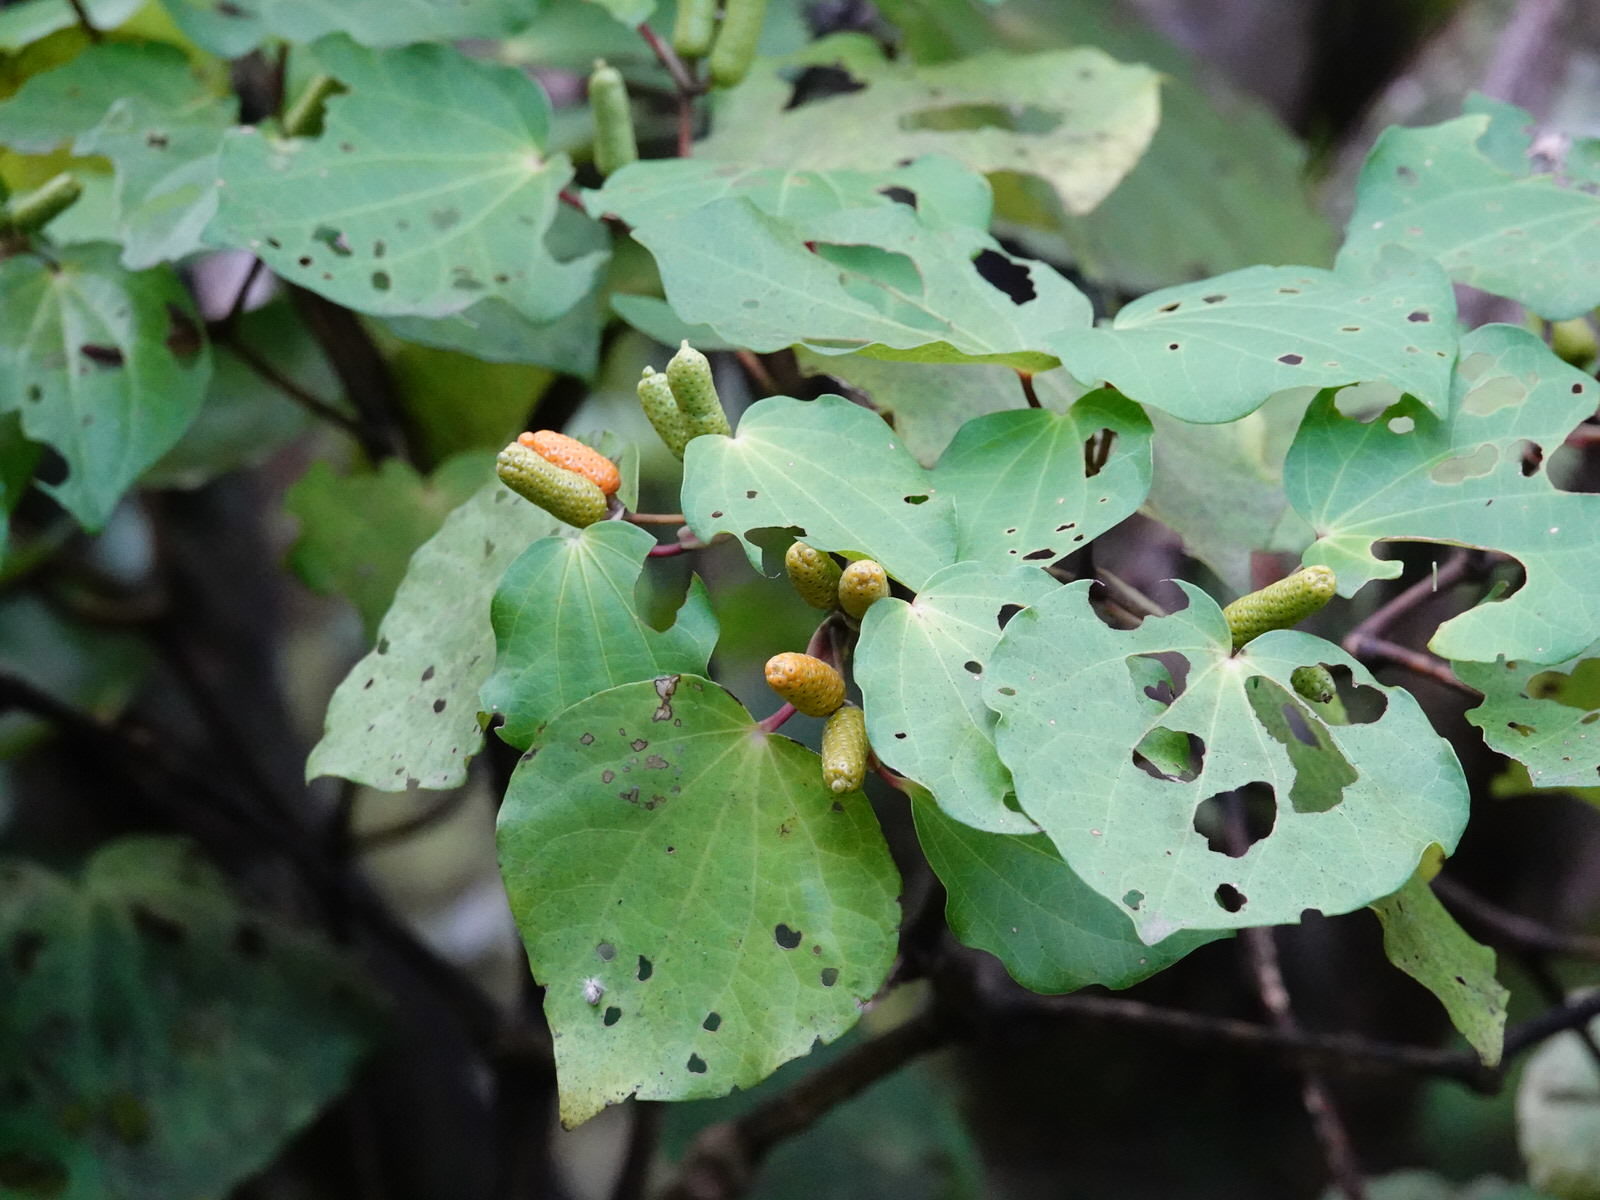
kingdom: Plantae
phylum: Tracheophyta
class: Magnoliopsida
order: Piperales
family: Piperaceae
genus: Macropiper
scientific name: Macropiper excelsum
